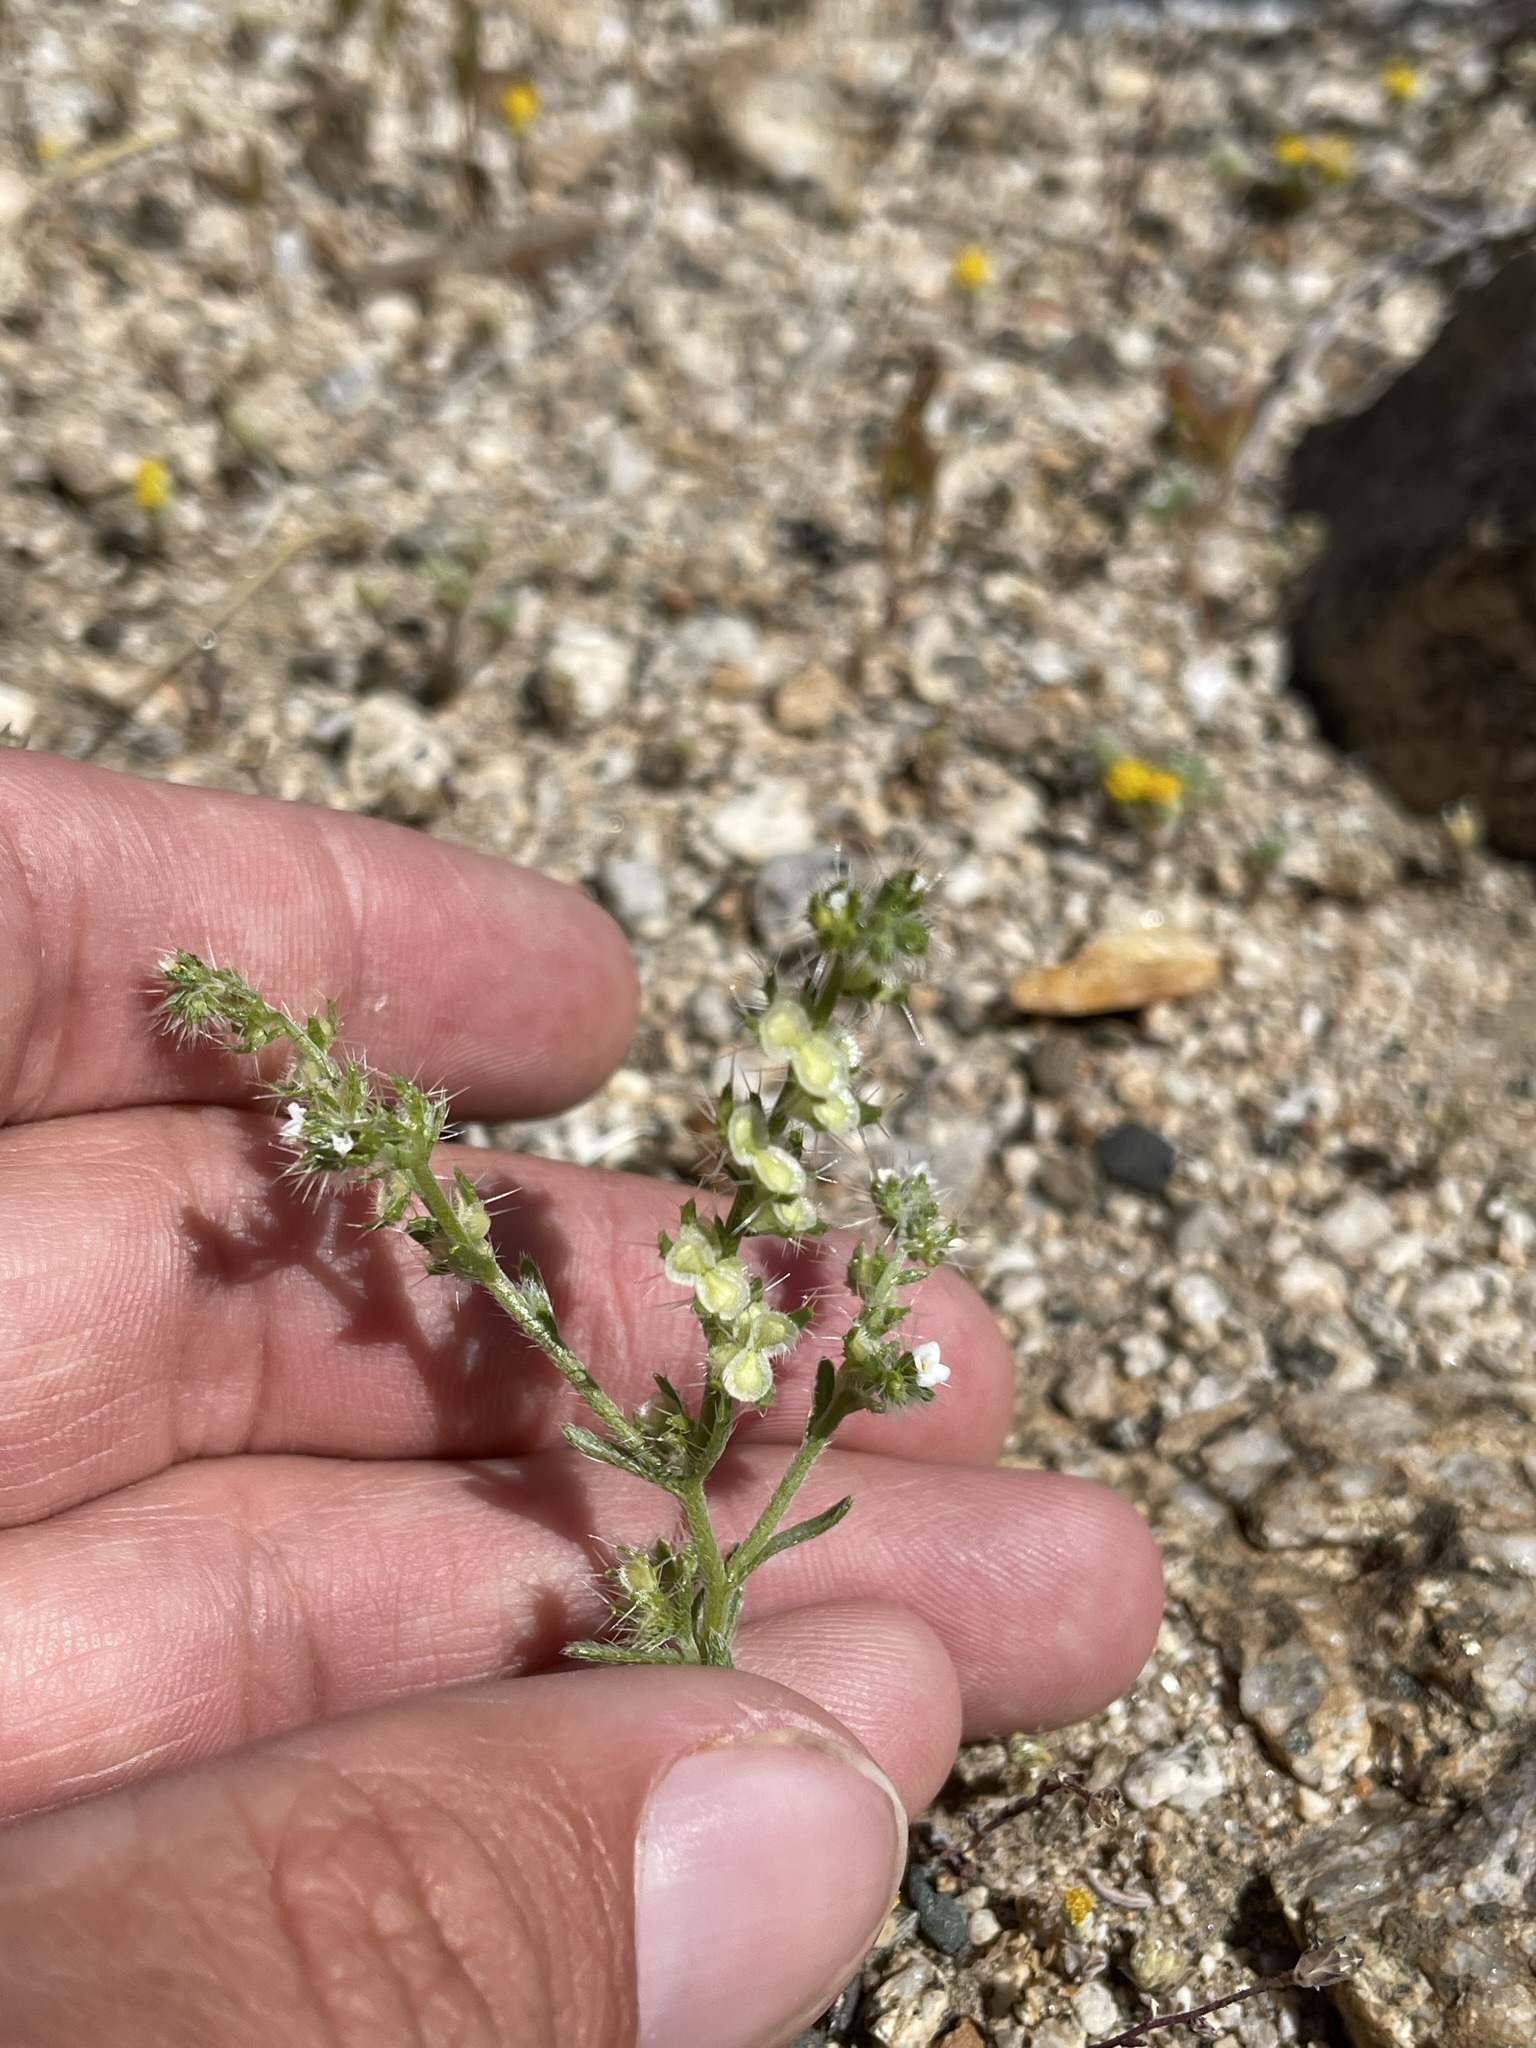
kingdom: Plantae
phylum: Tracheophyta
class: Magnoliopsida
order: Boraginales
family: Boraginaceae
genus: Pectocarya
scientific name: Pectocarya setosa
